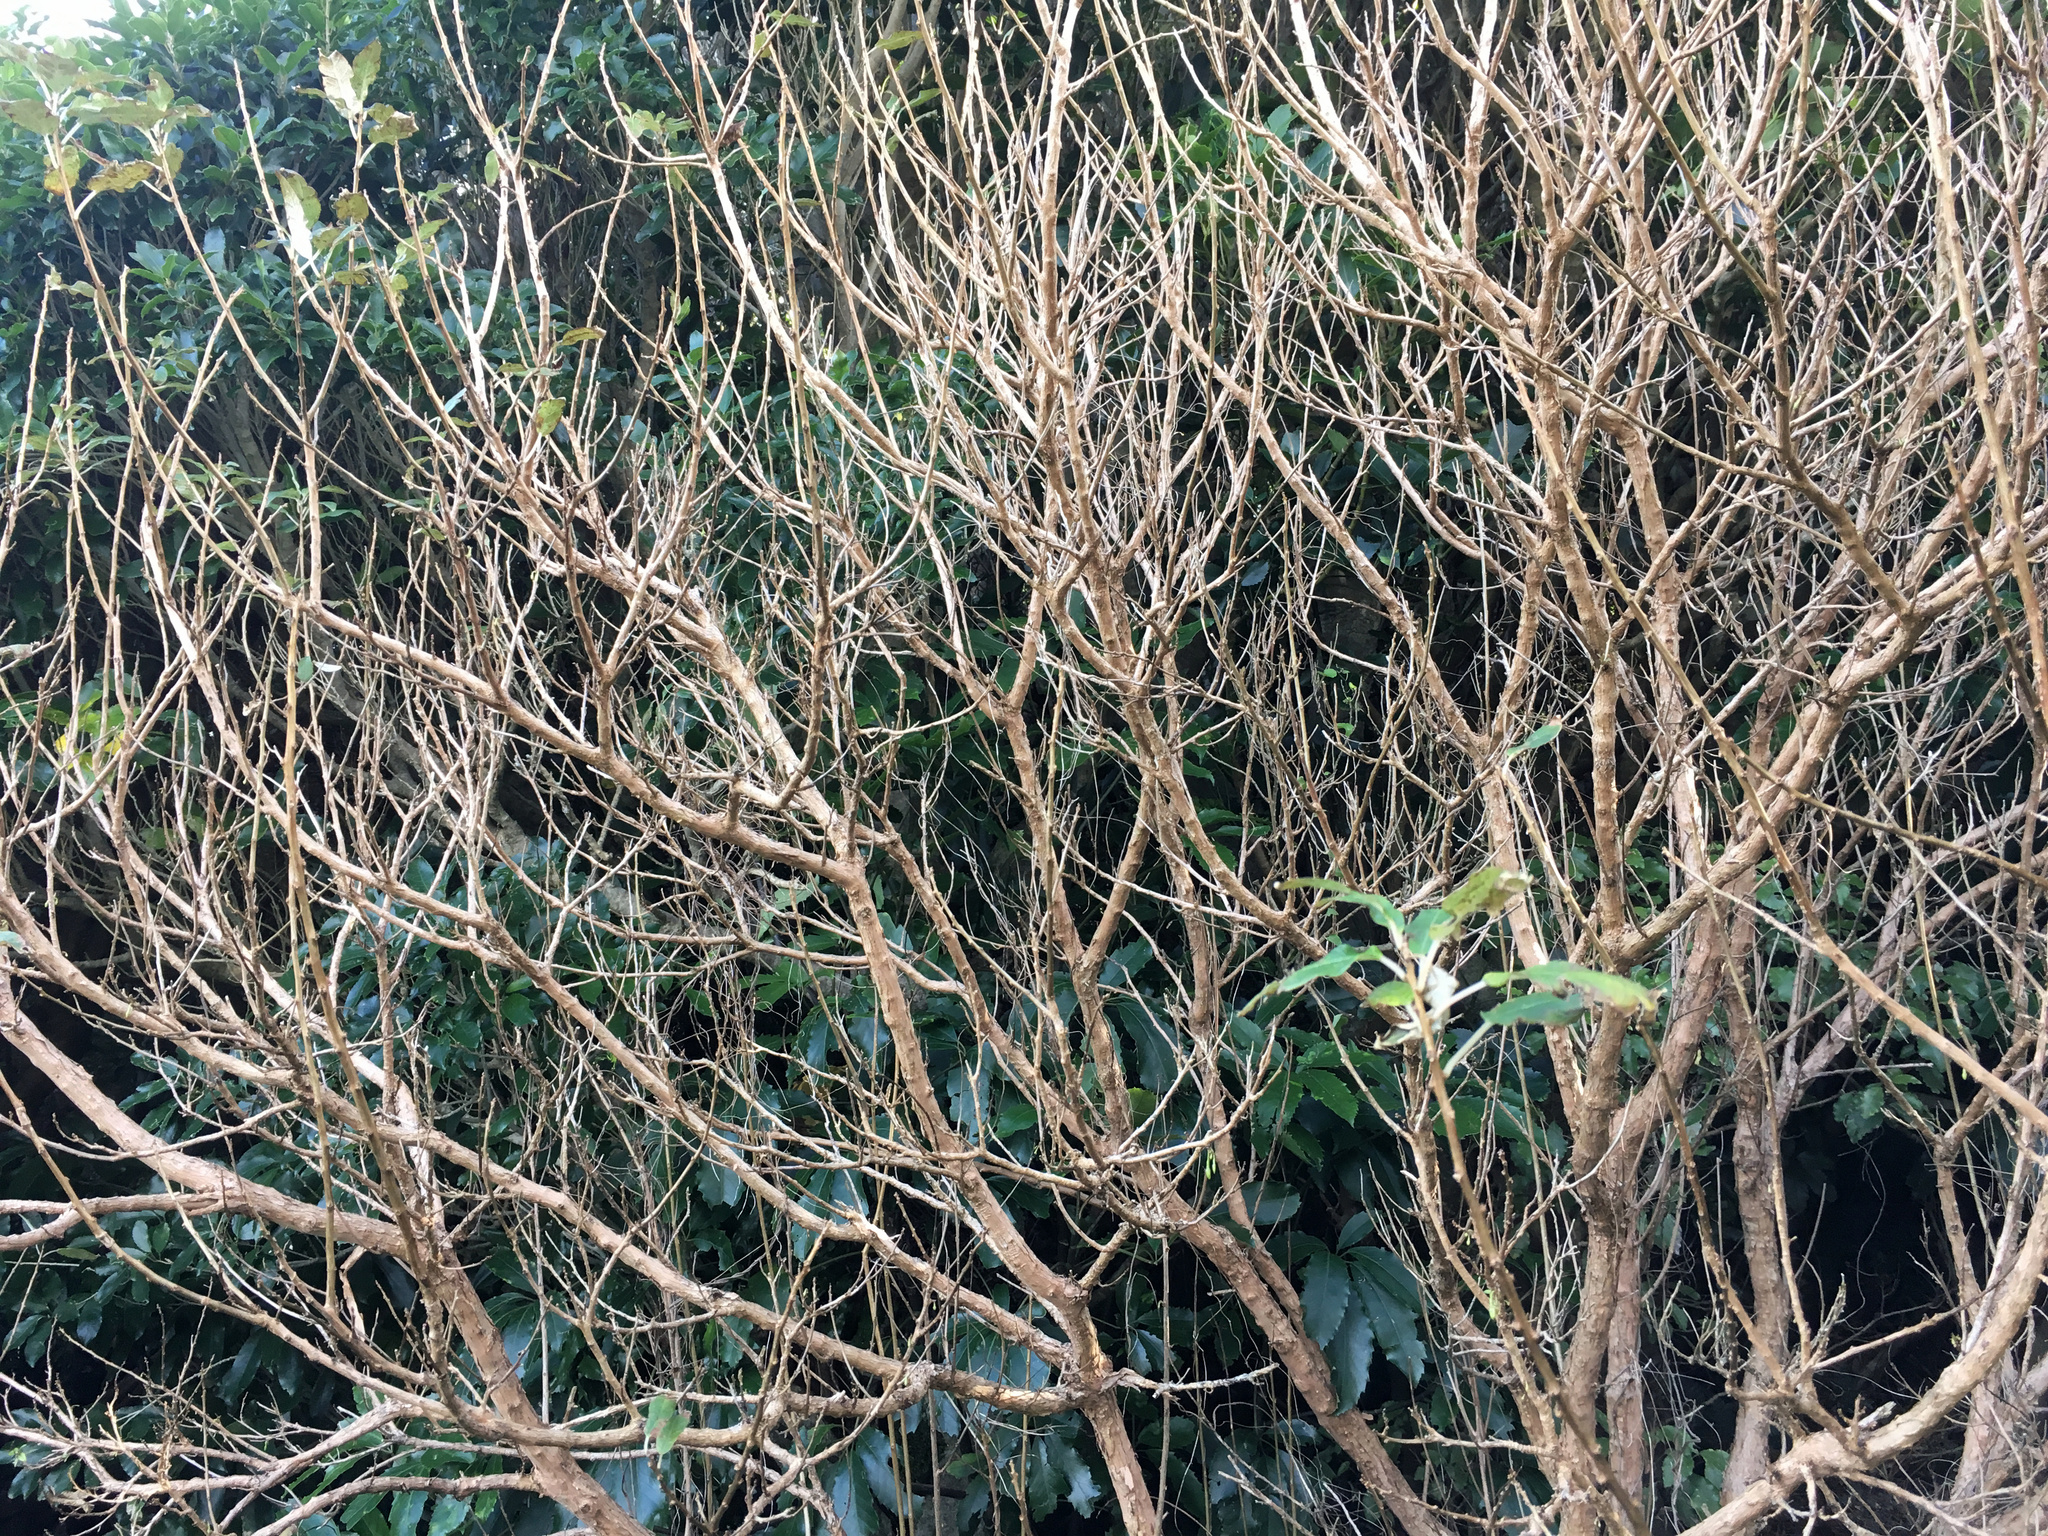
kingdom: Plantae
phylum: Tracheophyta
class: Magnoliopsida
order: Myrtales
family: Onagraceae
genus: Fuchsia
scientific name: Fuchsia excorticata
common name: Tree fuchsia
